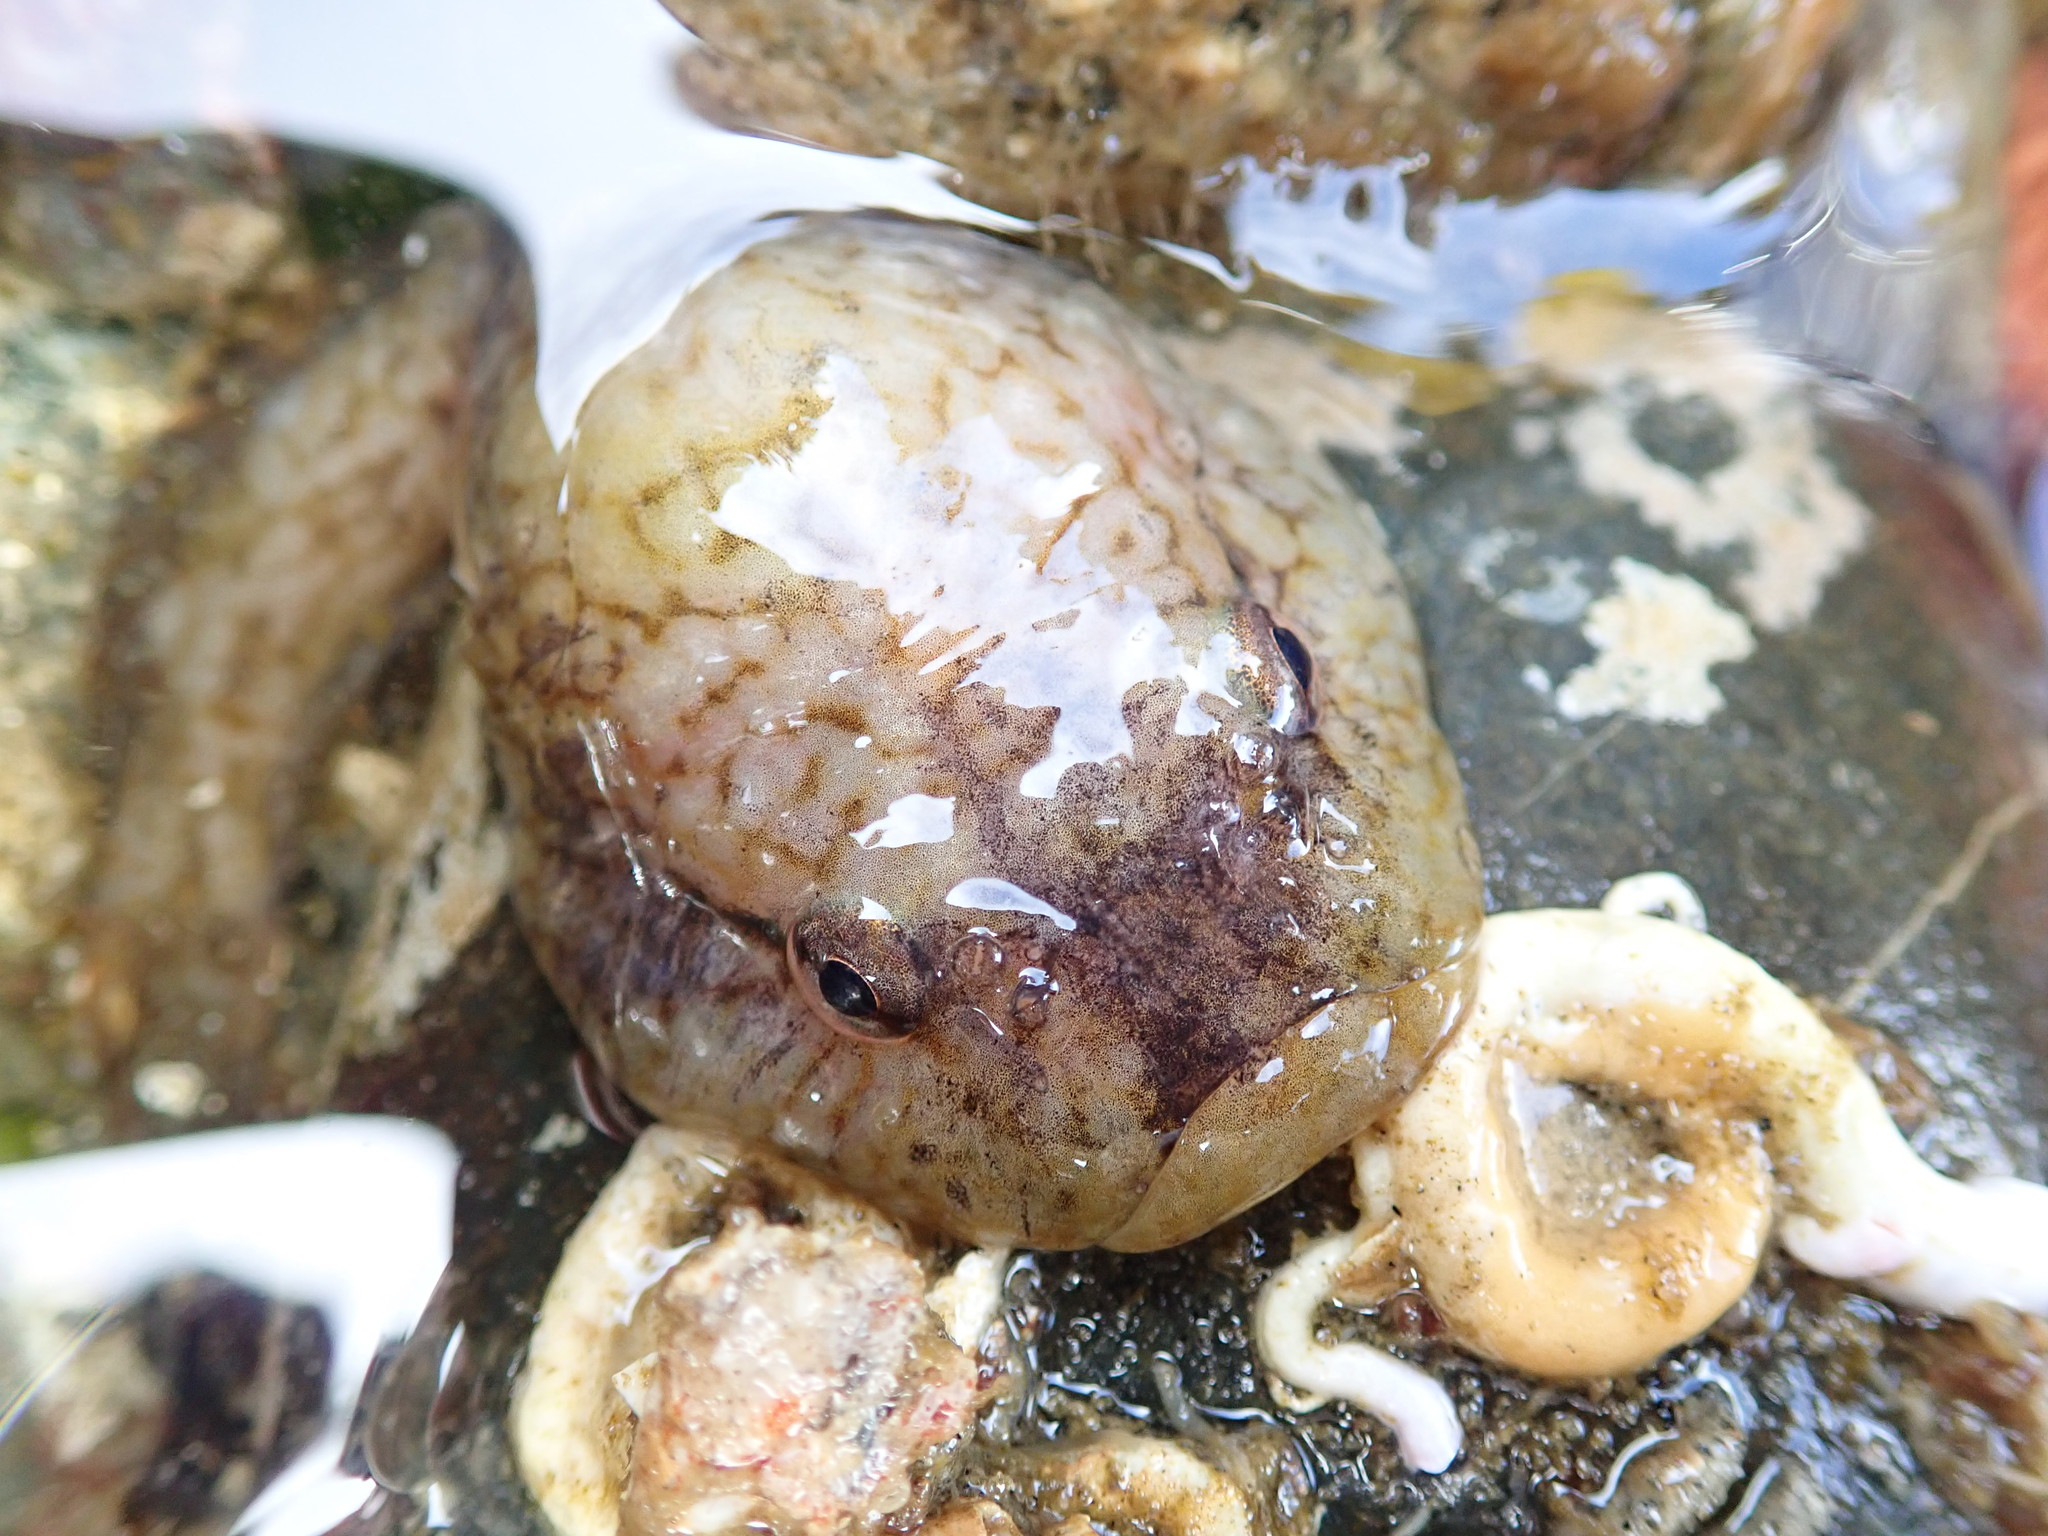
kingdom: Animalia
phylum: Chordata
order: Gobiesociformes
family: Gobiesocidae
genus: Gobiesox
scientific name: Gobiesox maeandricus
